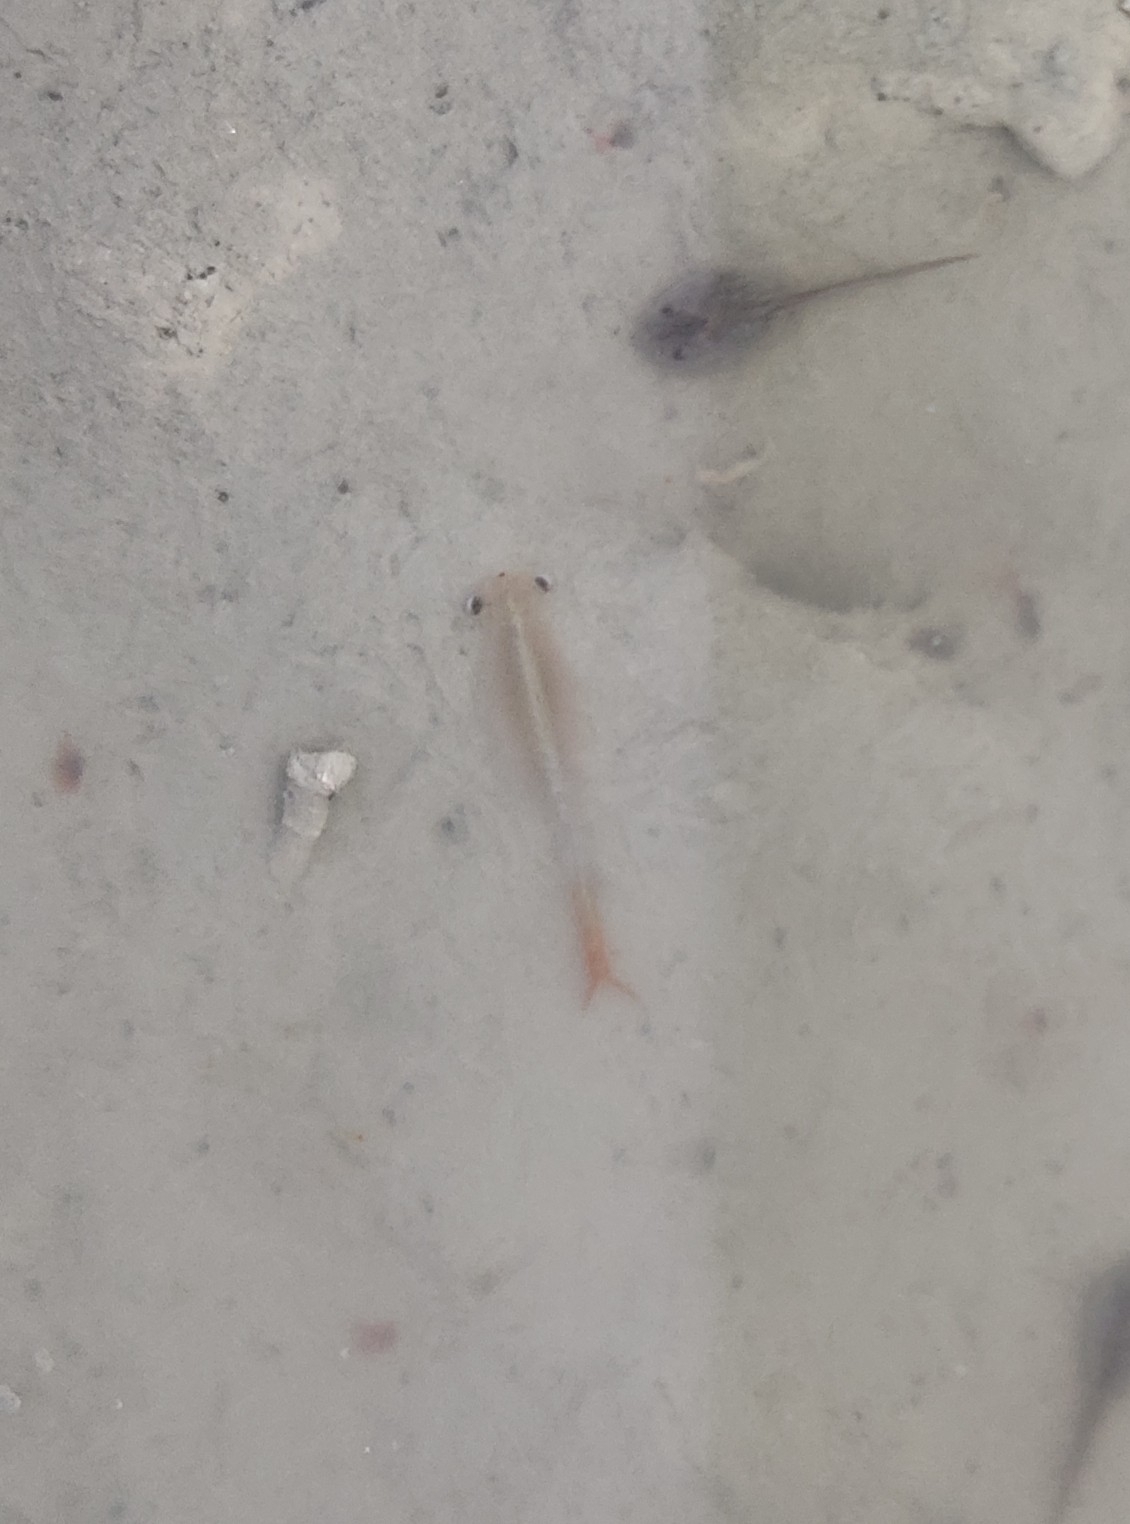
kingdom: Animalia
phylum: Arthropoda
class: Branchiopoda
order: Anostraca
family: Chirocephalidae
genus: Chirocephalus
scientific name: Chirocephalus diaphanus
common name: Fairy shrimp
